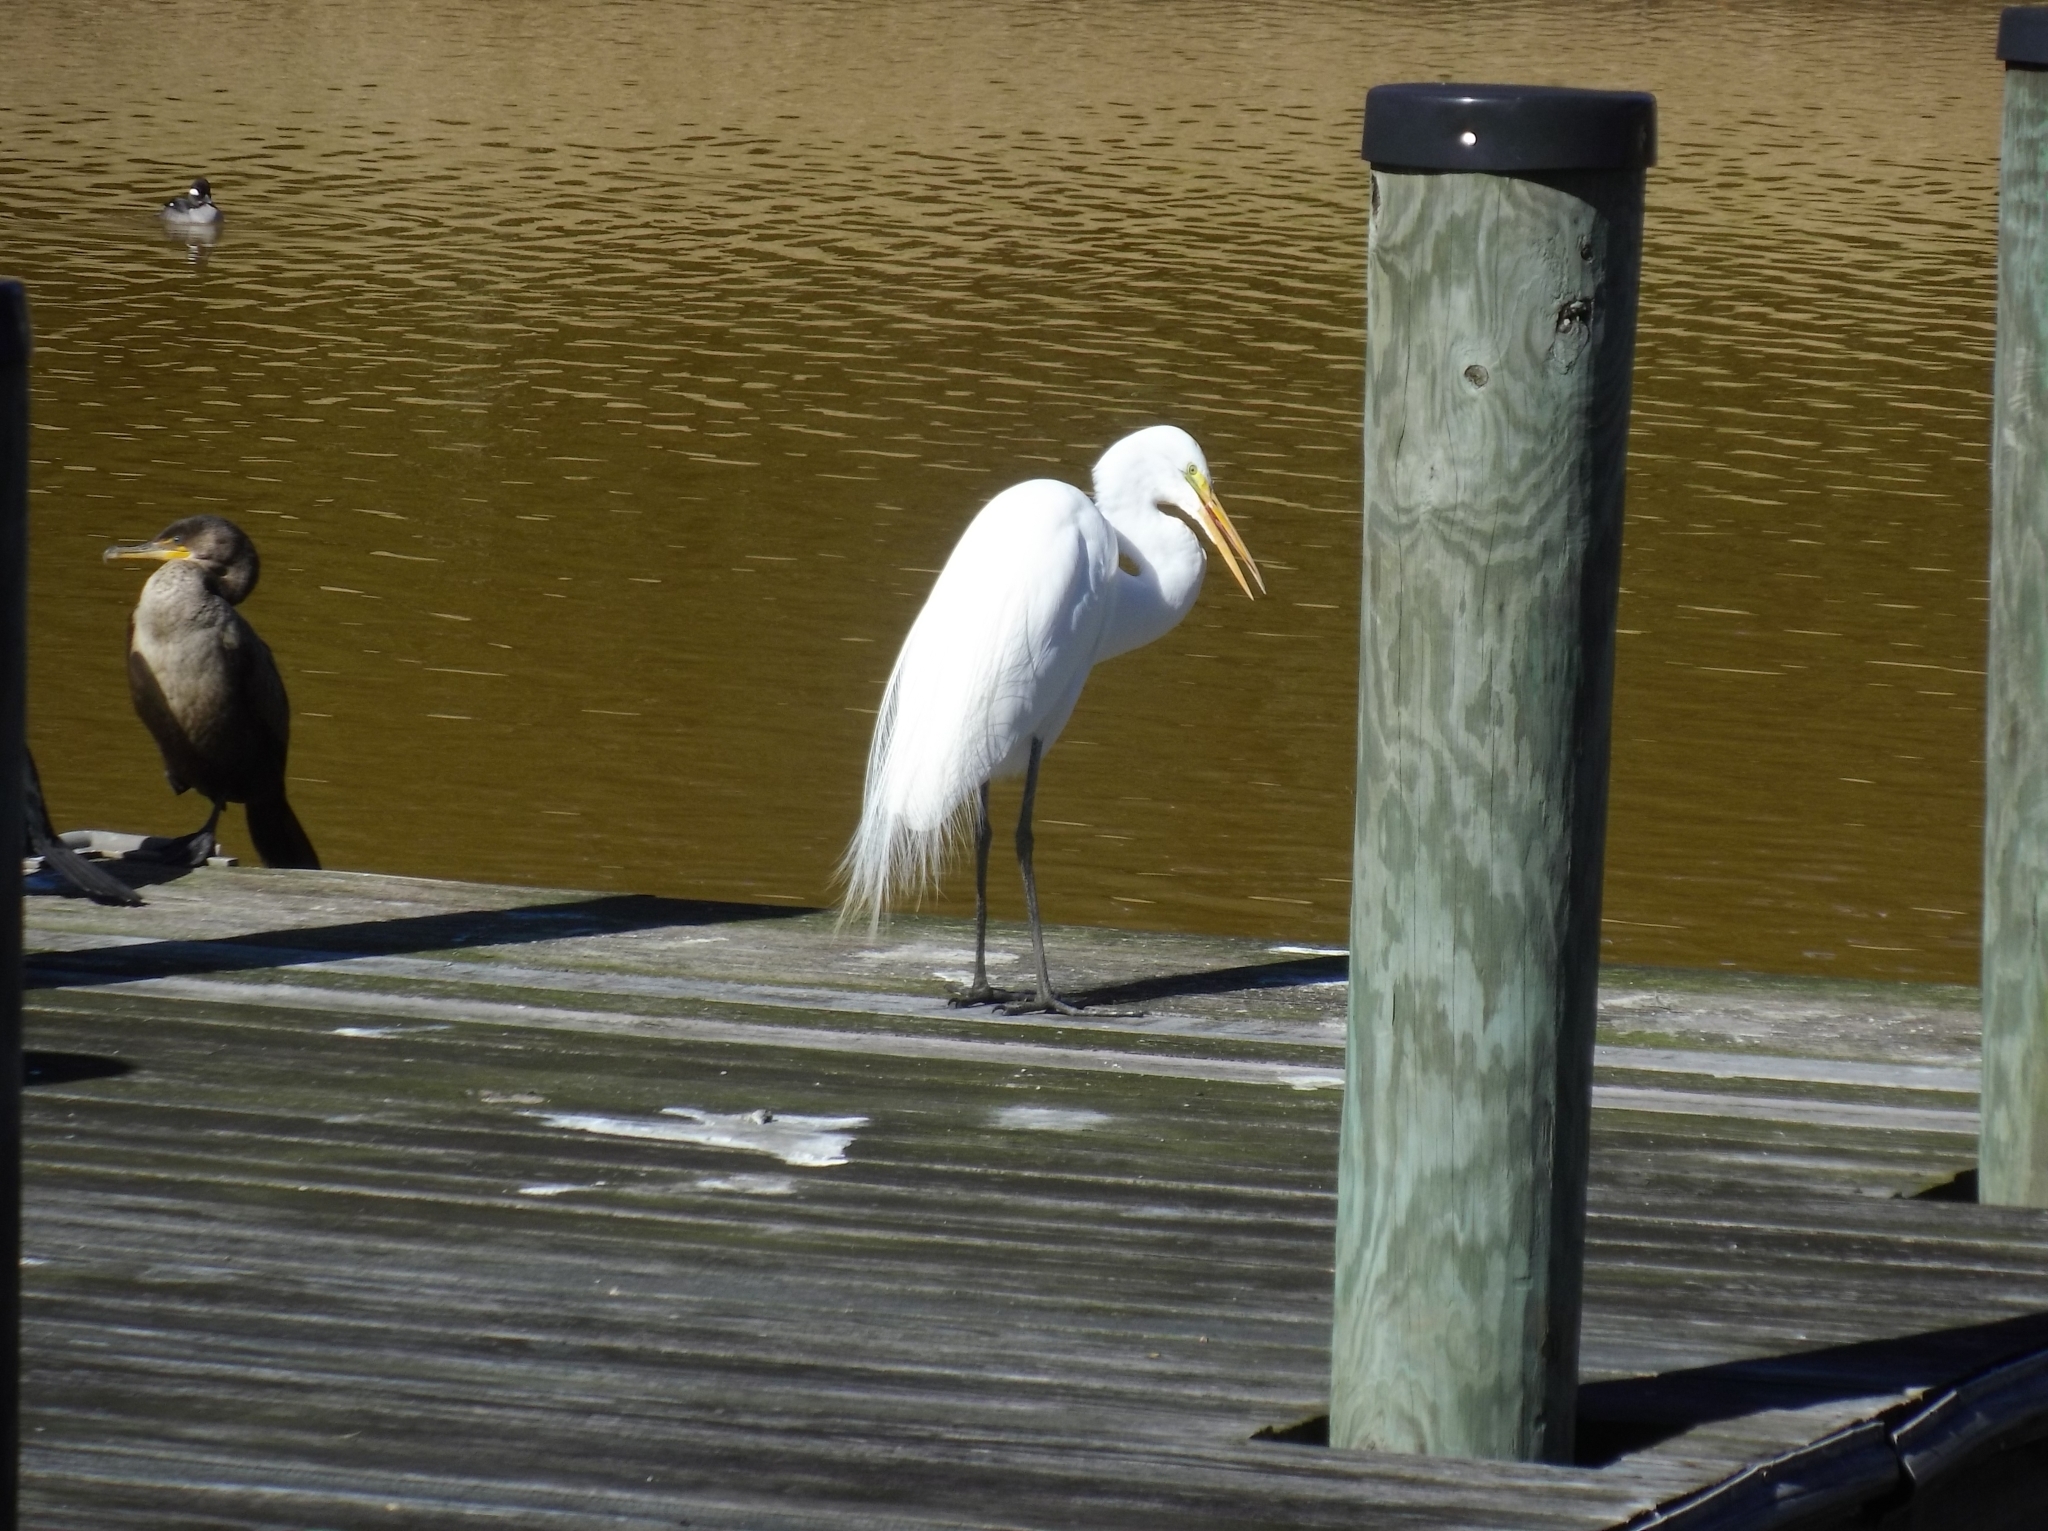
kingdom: Animalia
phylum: Chordata
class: Aves
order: Pelecaniformes
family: Ardeidae
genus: Ardea
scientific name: Ardea alba
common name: Great egret
